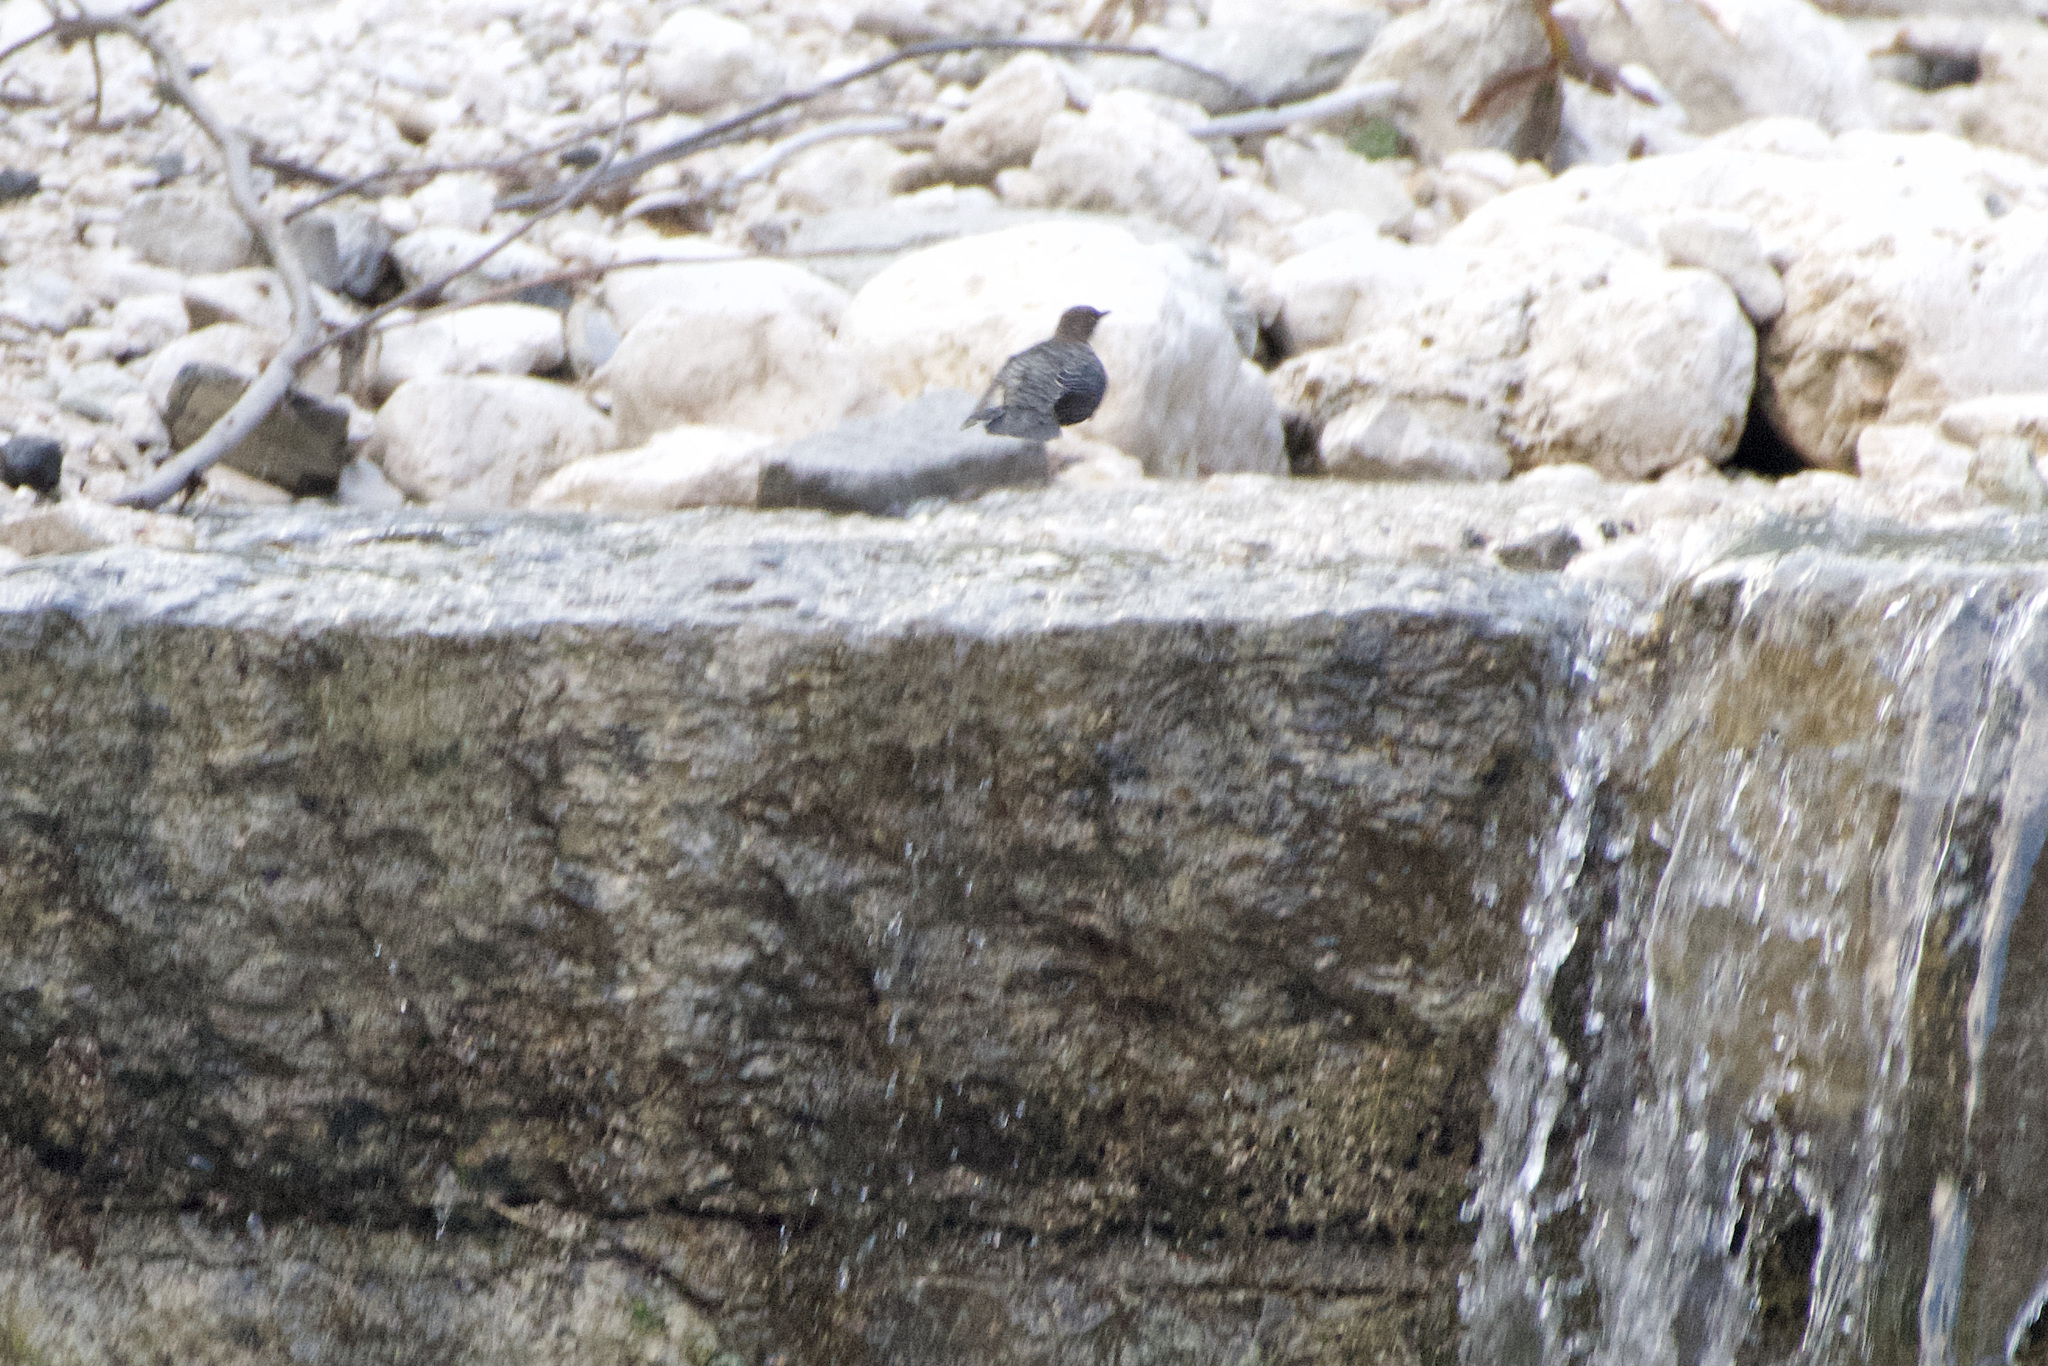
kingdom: Animalia
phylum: Chordata
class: Aves
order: Passeriformes
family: Cinclidae
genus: Cinclus
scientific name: Cinclus cinclus
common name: White-throated dipper
